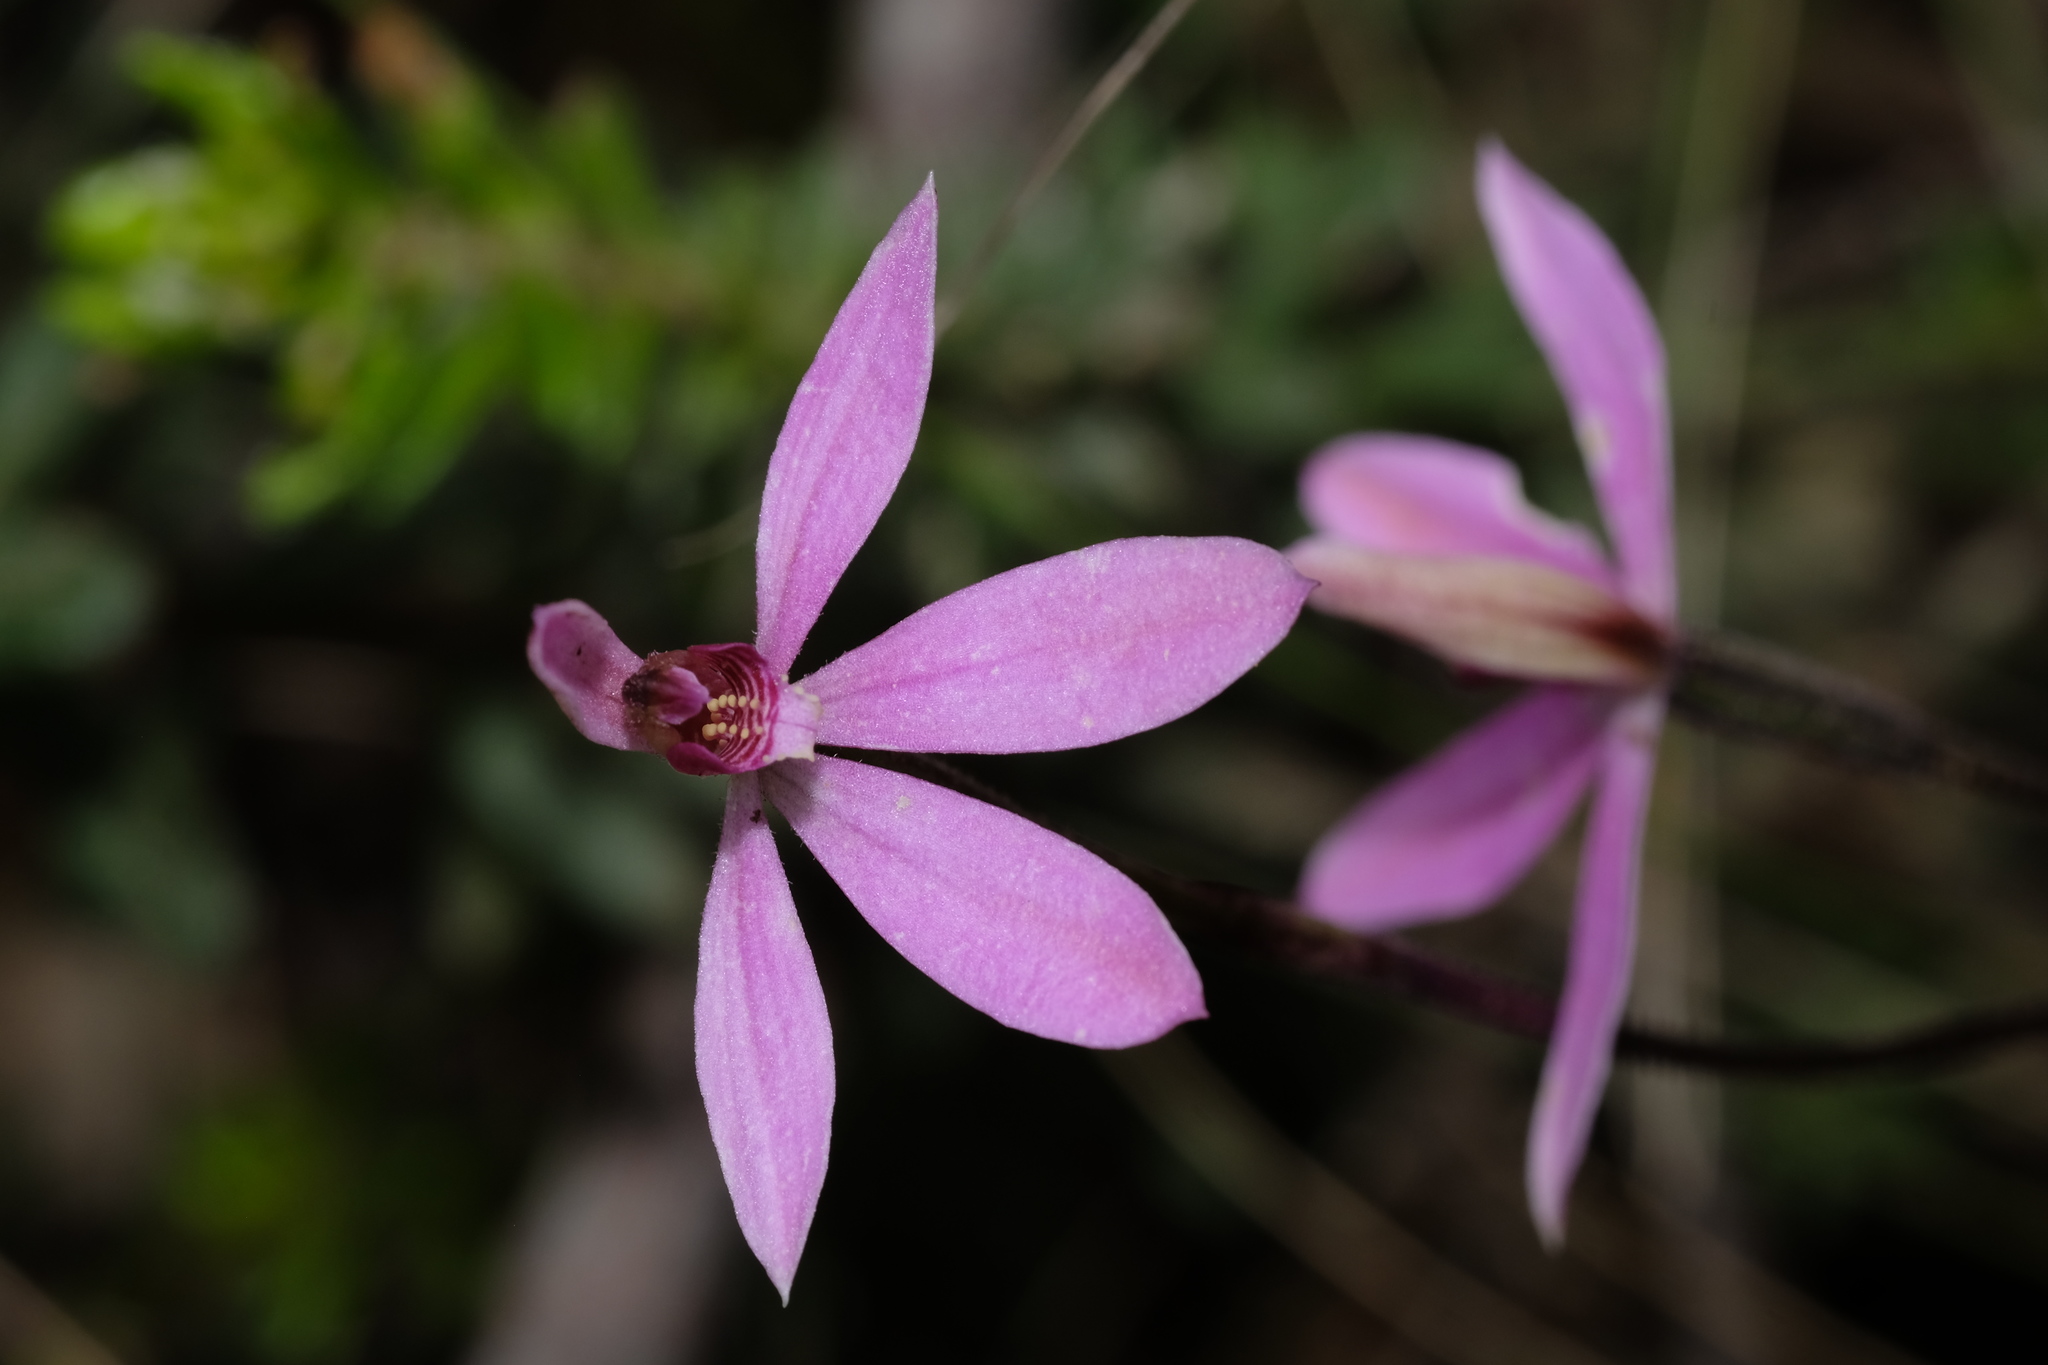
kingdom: Plantae
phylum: Tracheophyta
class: Liliopsida
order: Asparagales
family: Orchidaceae
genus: Caladenia
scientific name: Caladenia carnea
